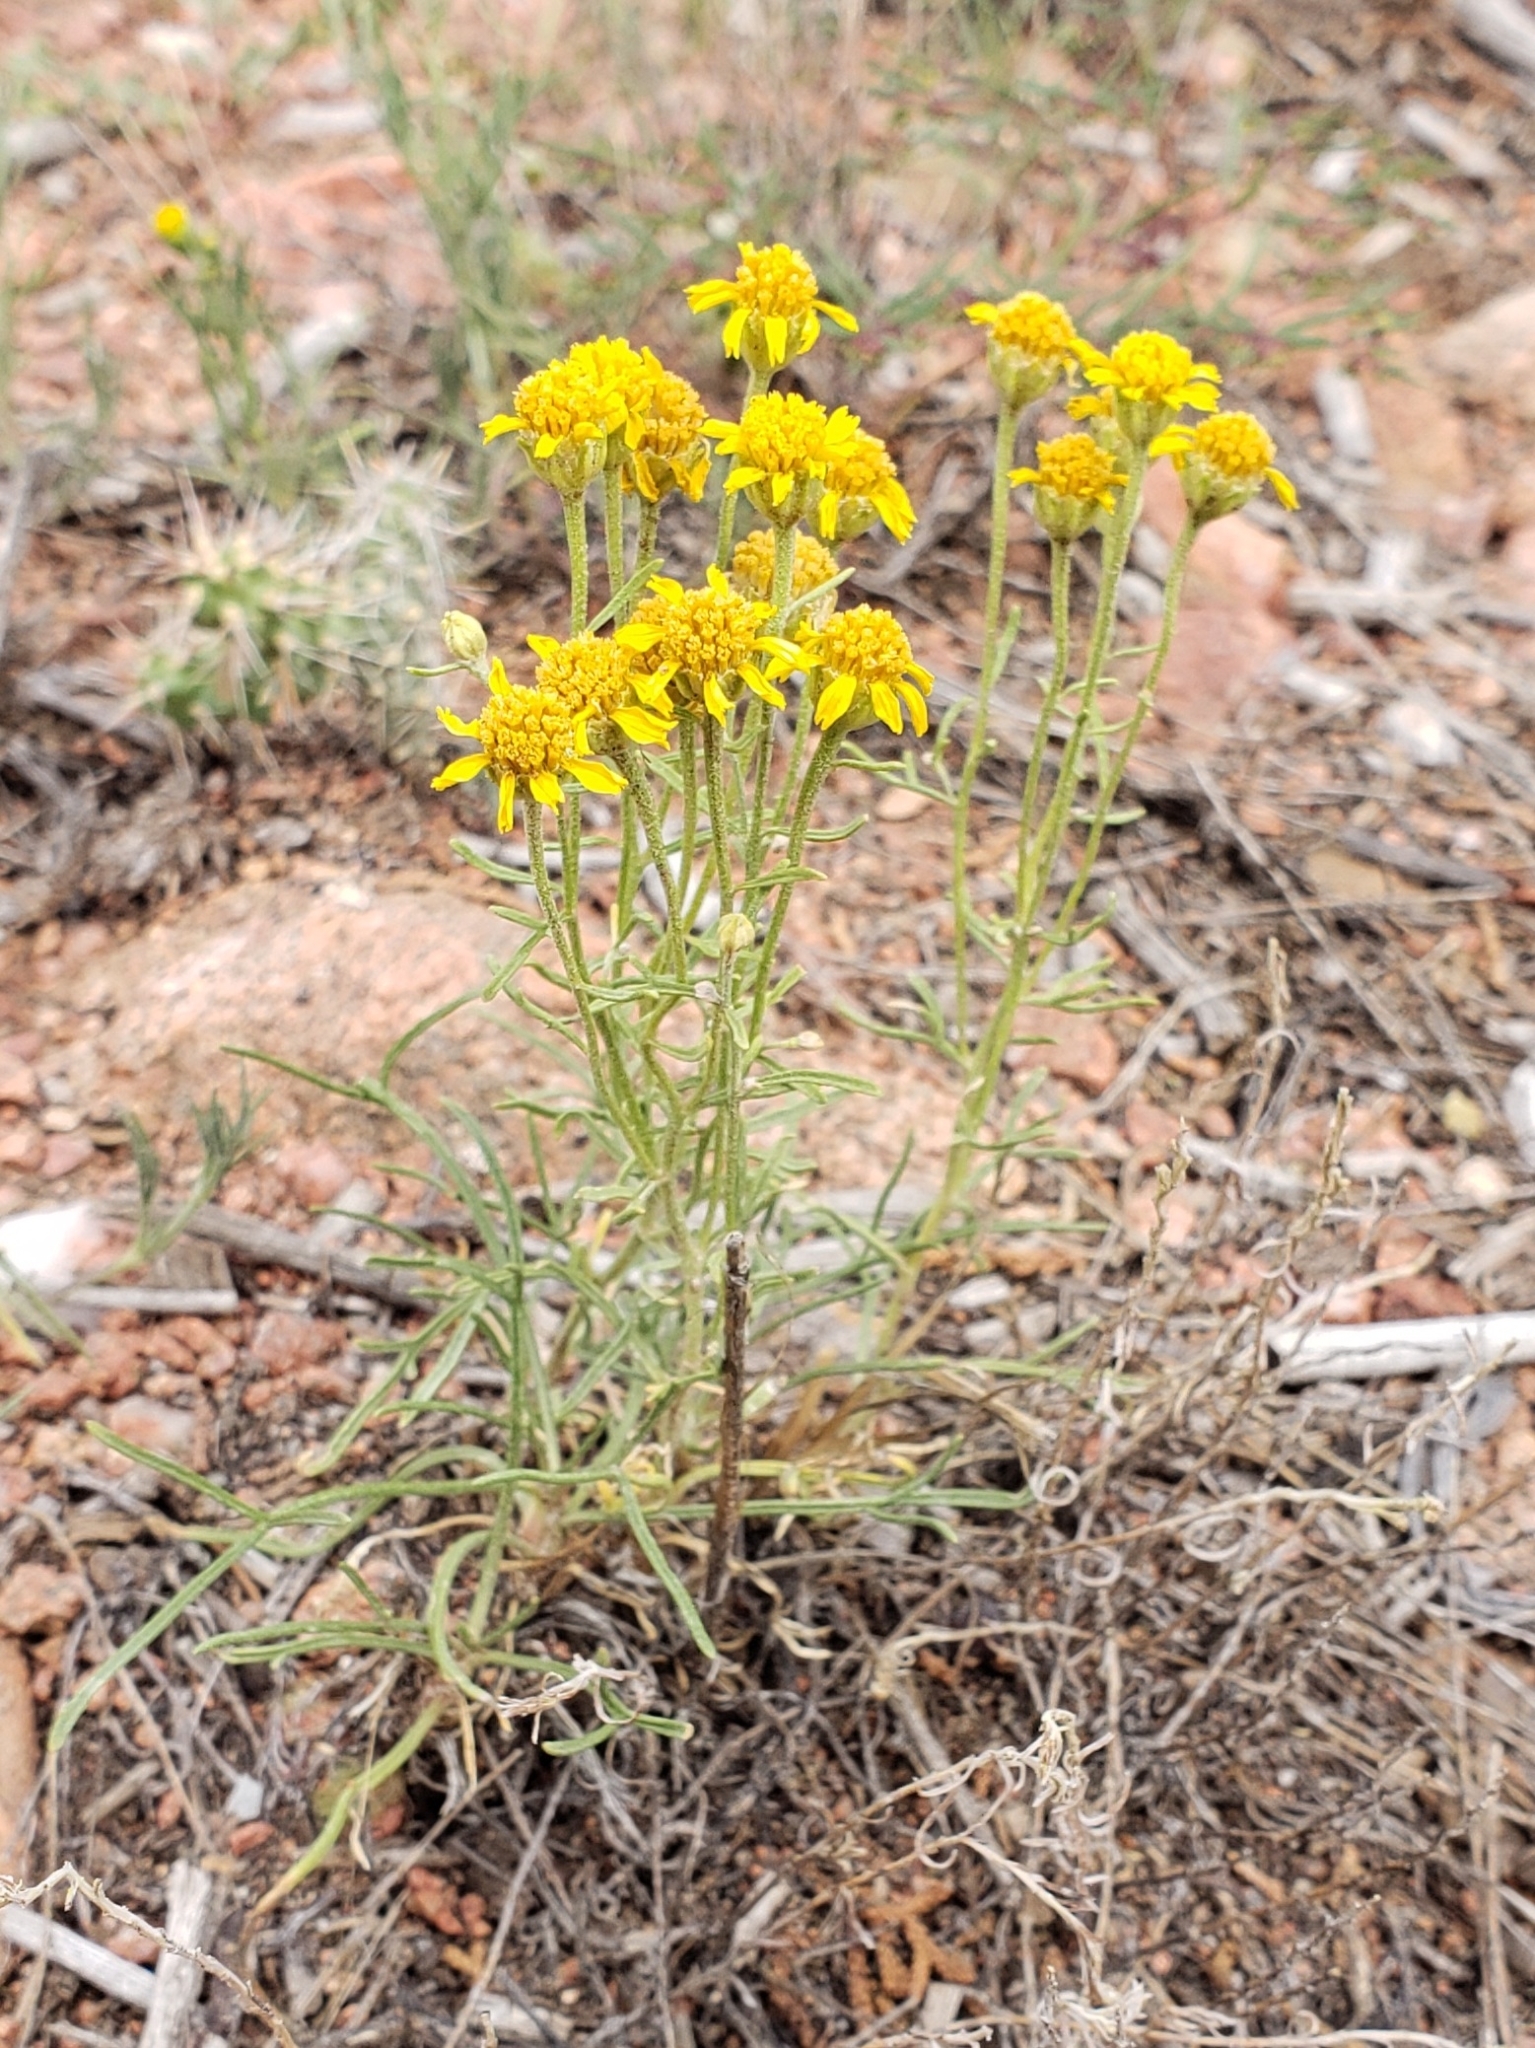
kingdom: Plantae
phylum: Tracheophyta
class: Magnoliopsida
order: Asterales
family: Asteraceae
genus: Hymenoxys
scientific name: Hymenoxys richardsonii
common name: Pingue rubberweed
